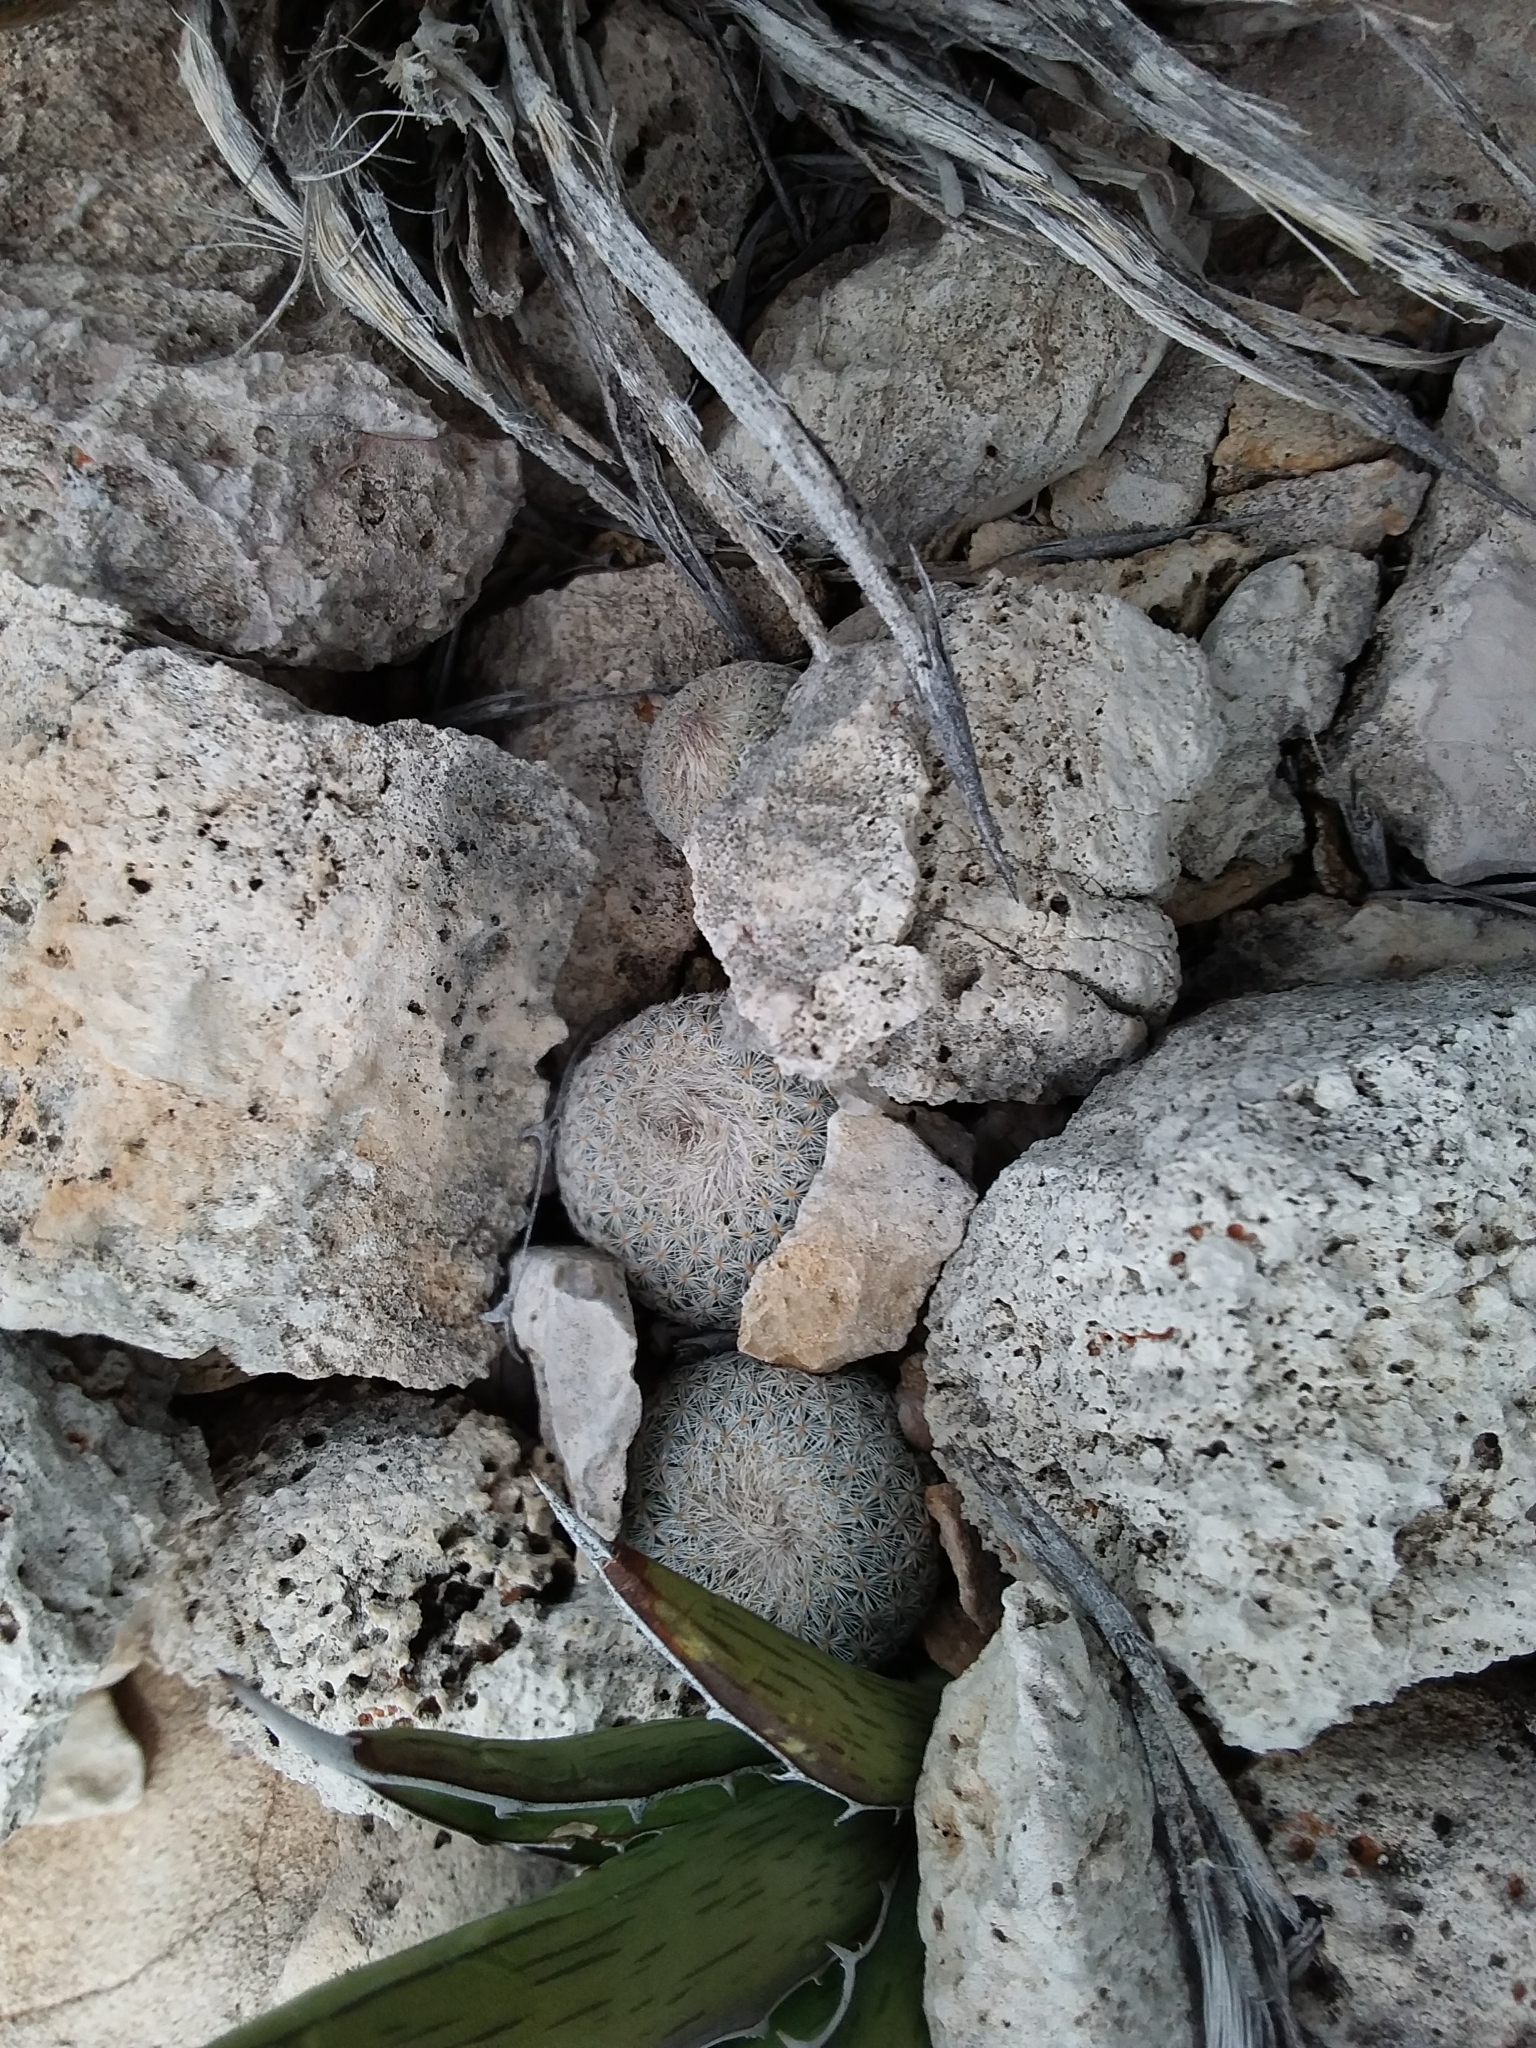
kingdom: Plantae
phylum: Tracheophyta
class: Magnoliopsida
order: Caryophyllales
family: Cactaceae
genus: Epithelantha
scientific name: Epithelantha micromeris
